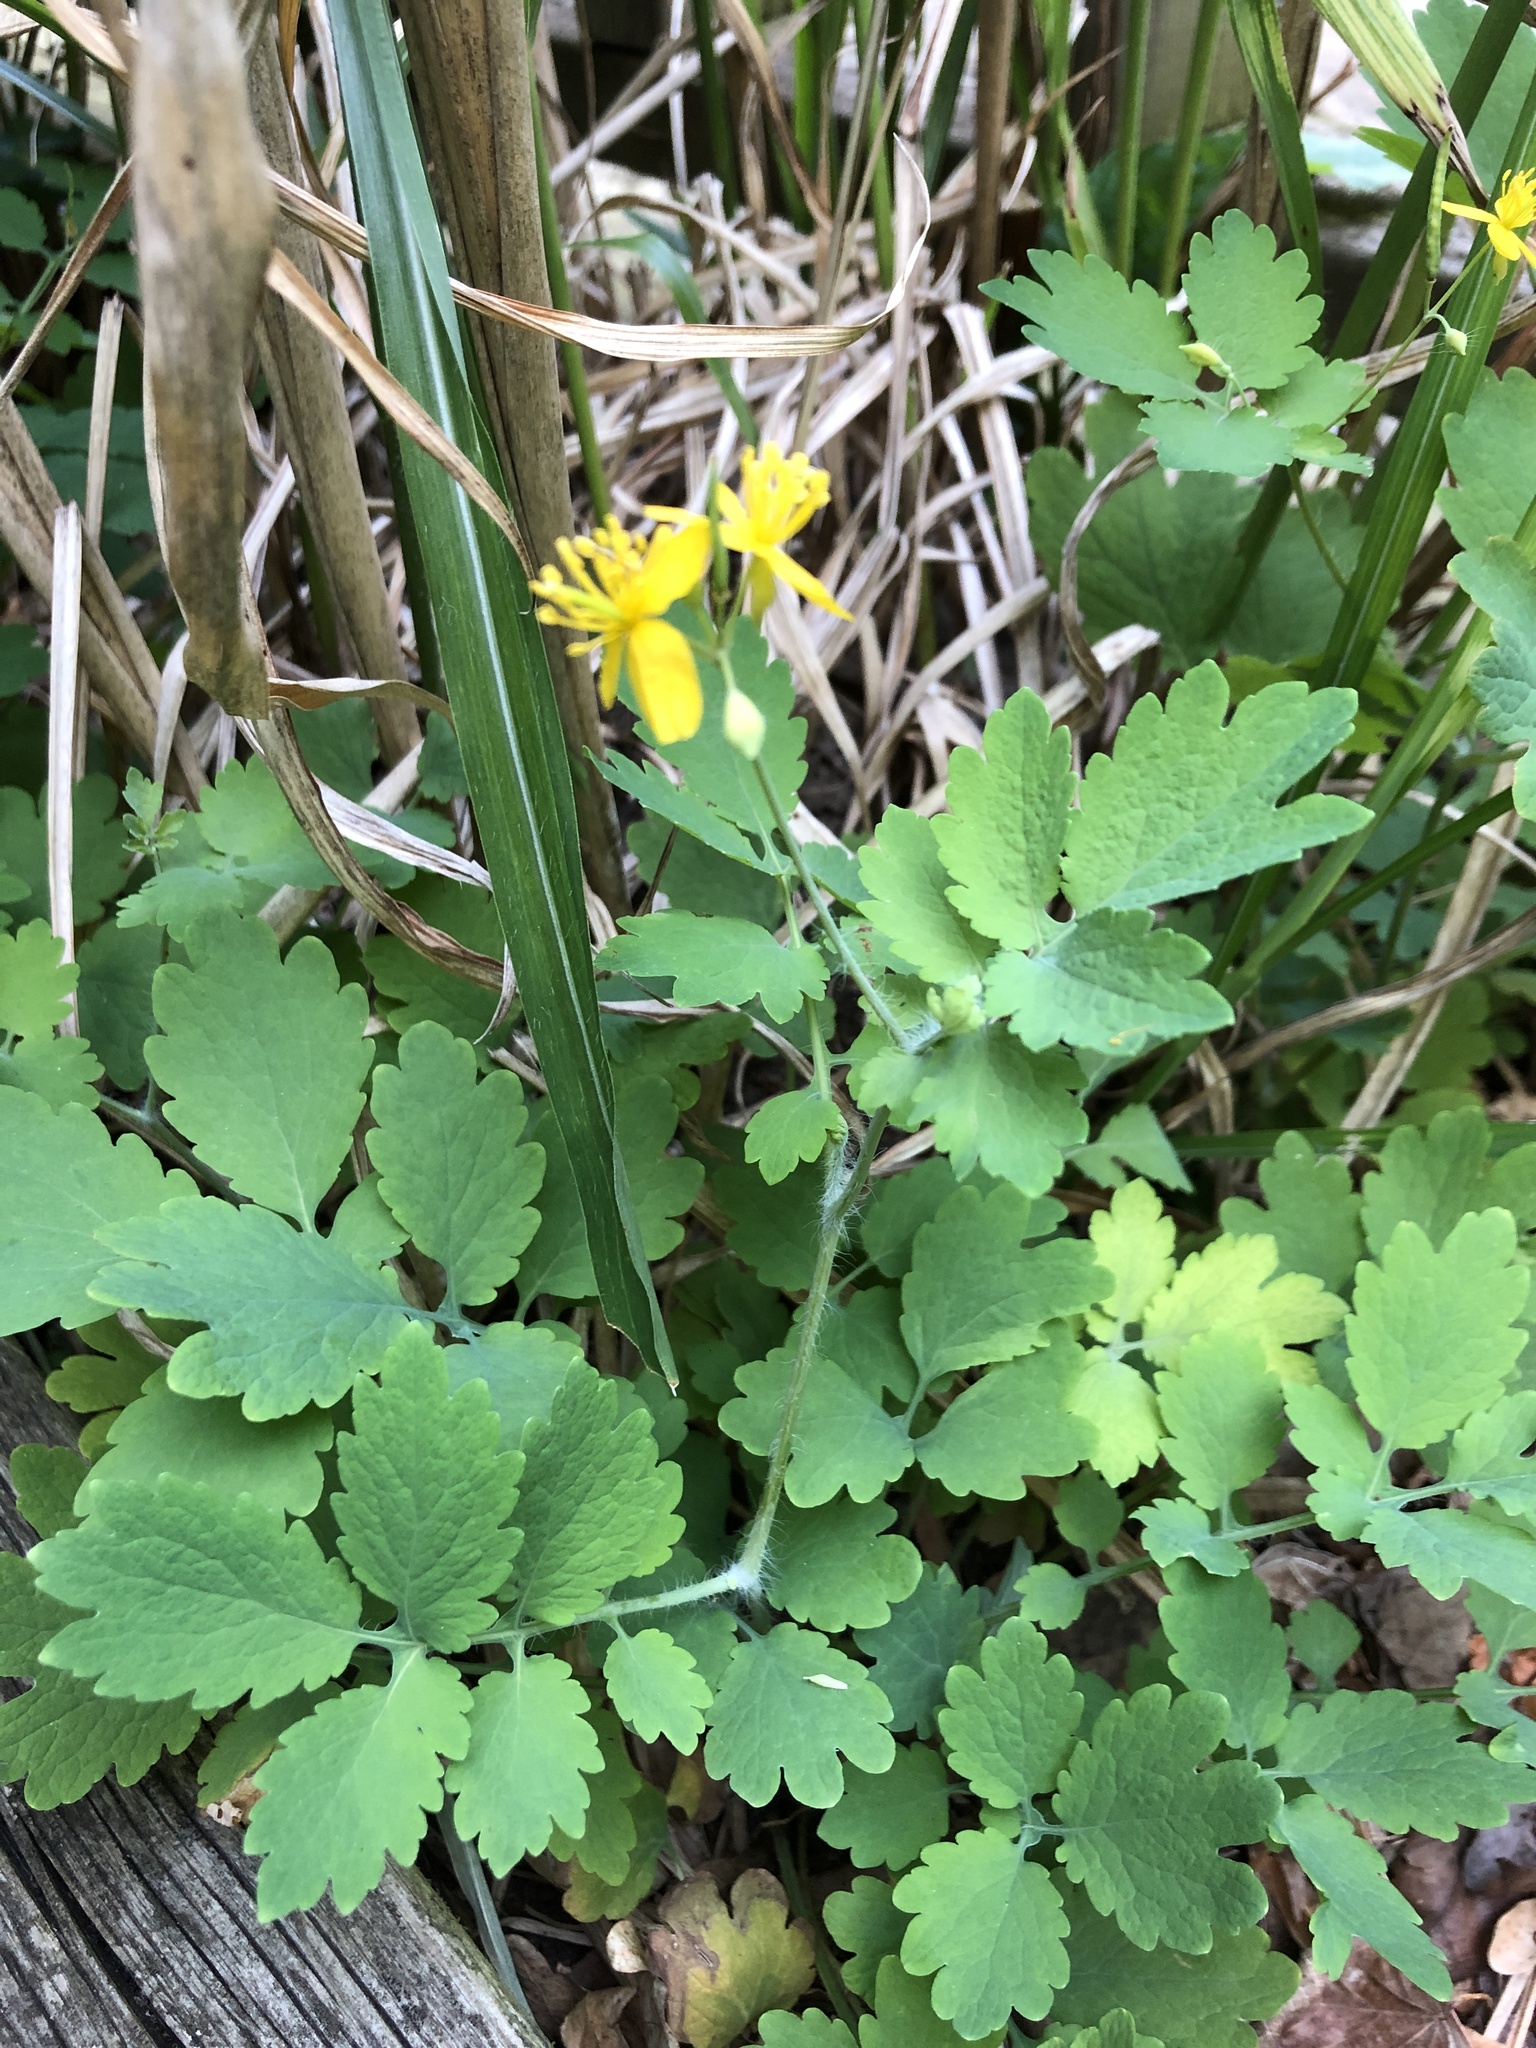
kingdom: Plantae
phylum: Tracheophyta
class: Magnoliopsida
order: Ranunculales
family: Papaveraceae
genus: Chelidonium
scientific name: Chelidonium majus
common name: Greater celandine
